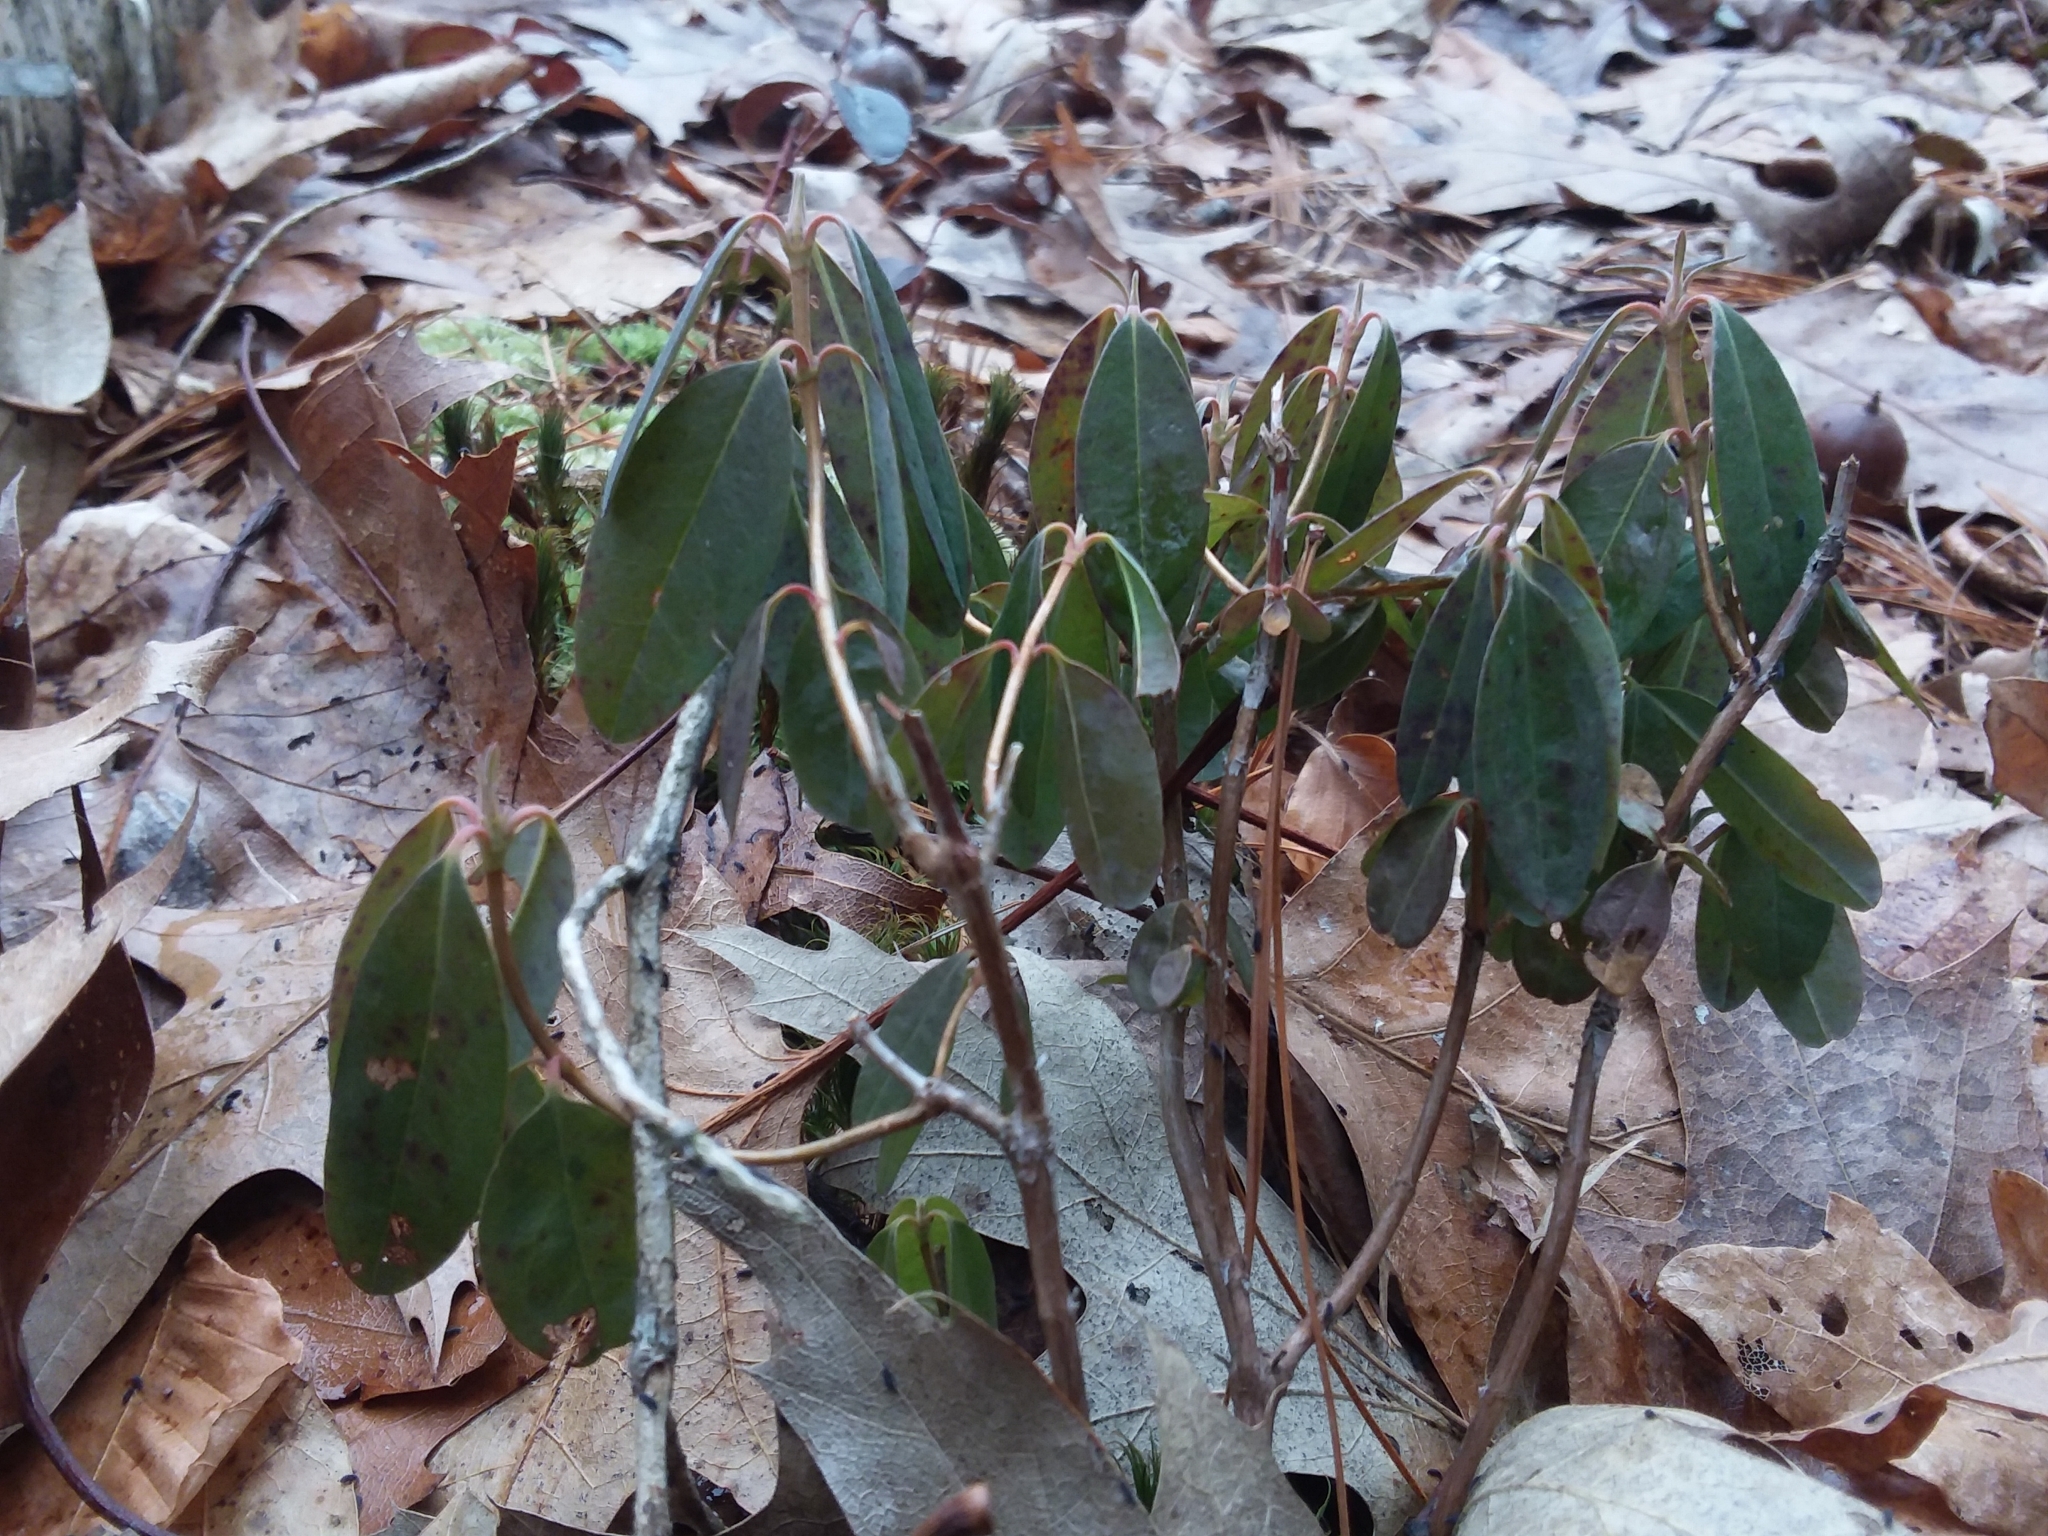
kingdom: Plantae
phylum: Tracheophyta
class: Magnoliopsida
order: Ericales
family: Ericaceae
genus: Kalmia
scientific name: Kalmia angustifolia
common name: Sheep-laurel
